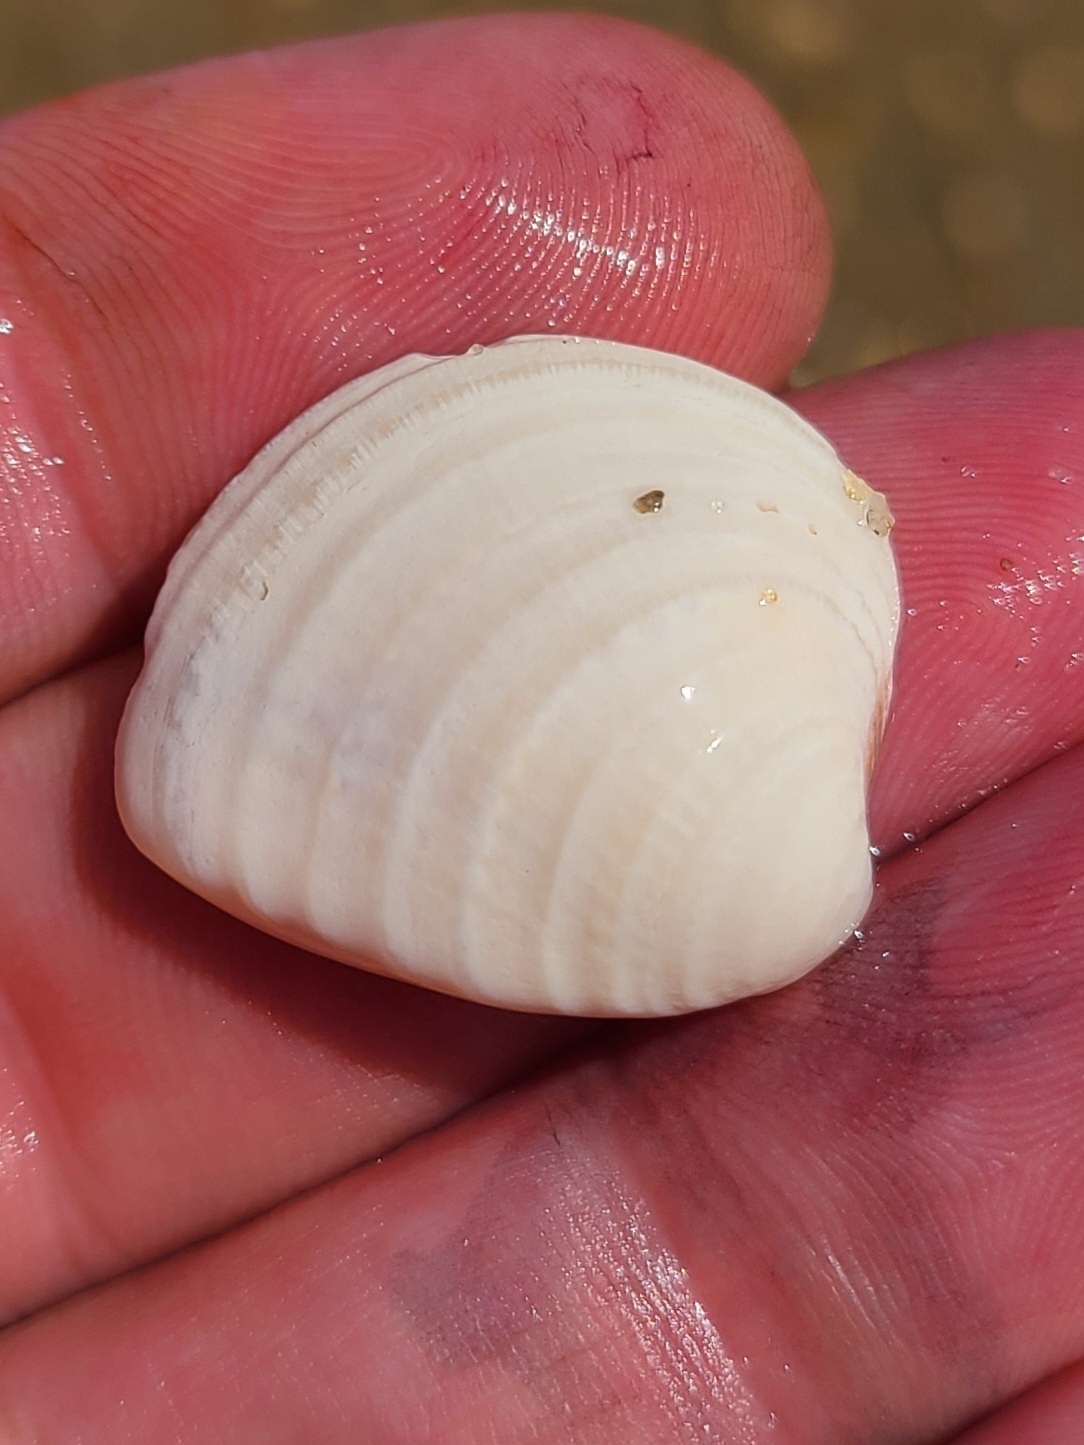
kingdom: Animalia
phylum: Mollusca
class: Bivalvia
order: Venerida
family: Veneridae
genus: Chione
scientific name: Chione elevata
